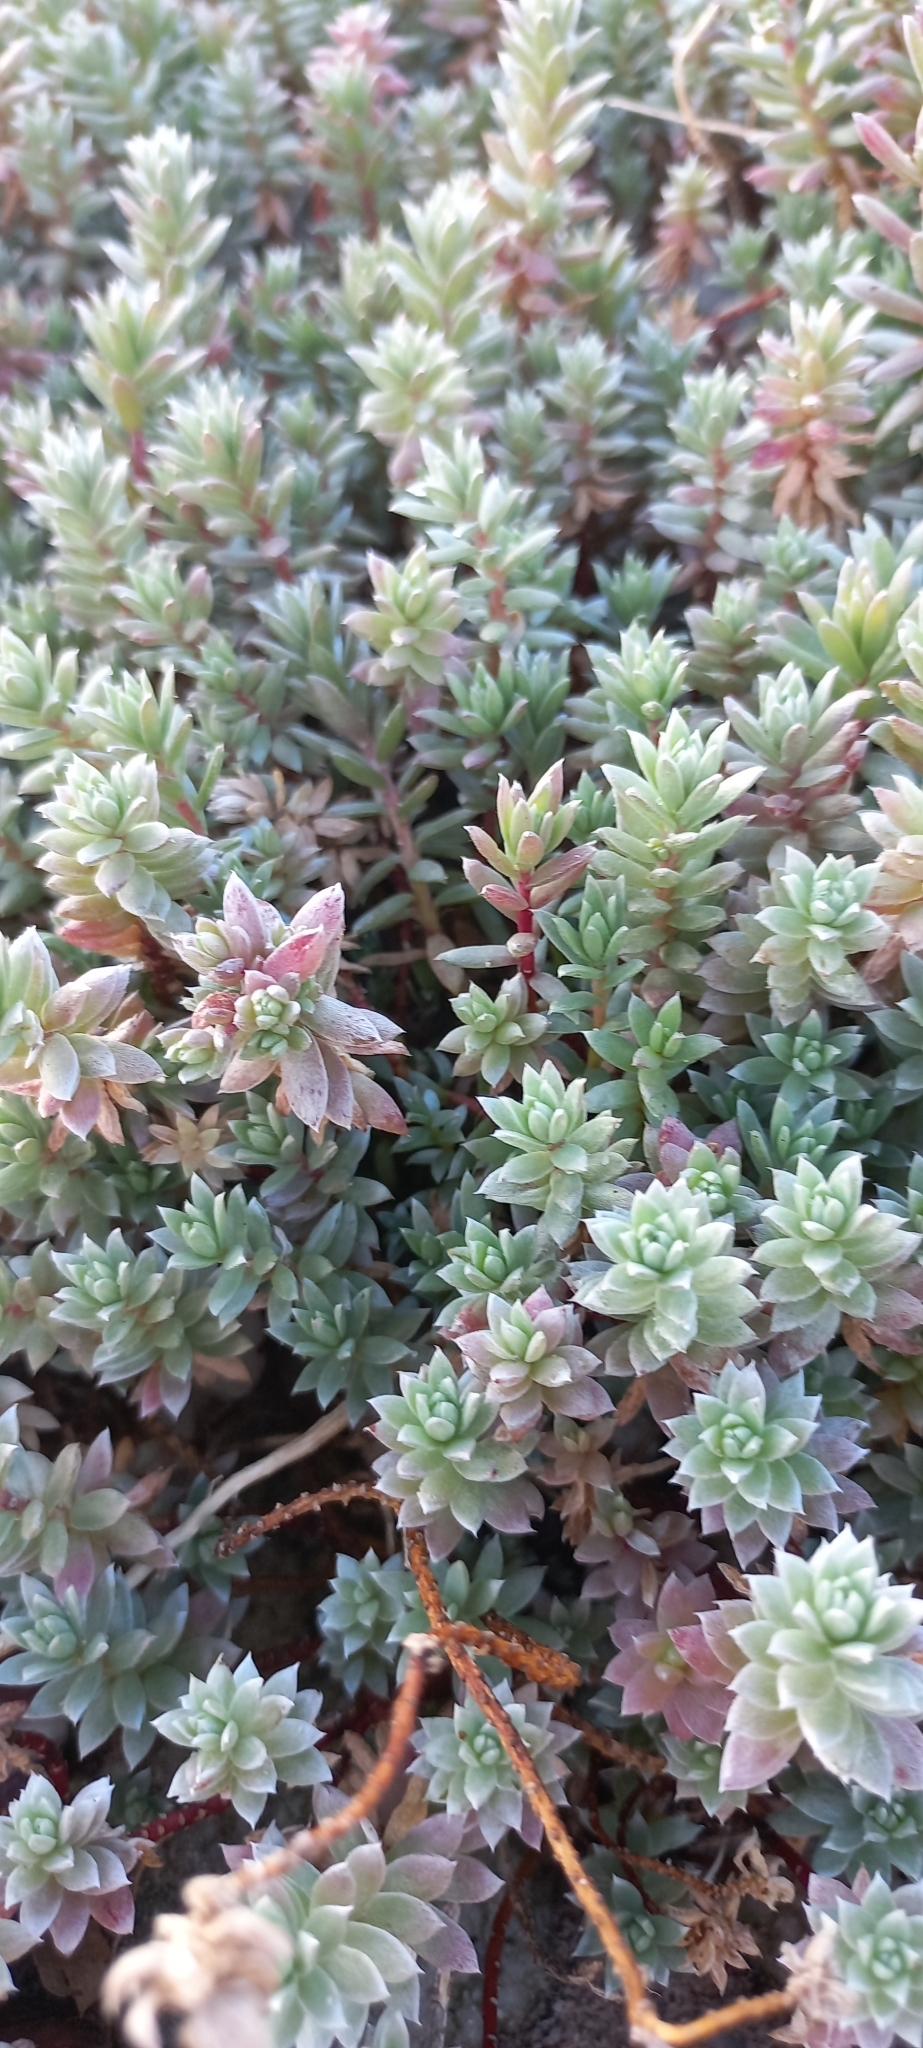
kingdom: Plantae
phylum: Tracheophyta
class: Magnoliopsida
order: Caryophyllales
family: Amaranthaceae
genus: Chenolea
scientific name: Chenolea diffusa
